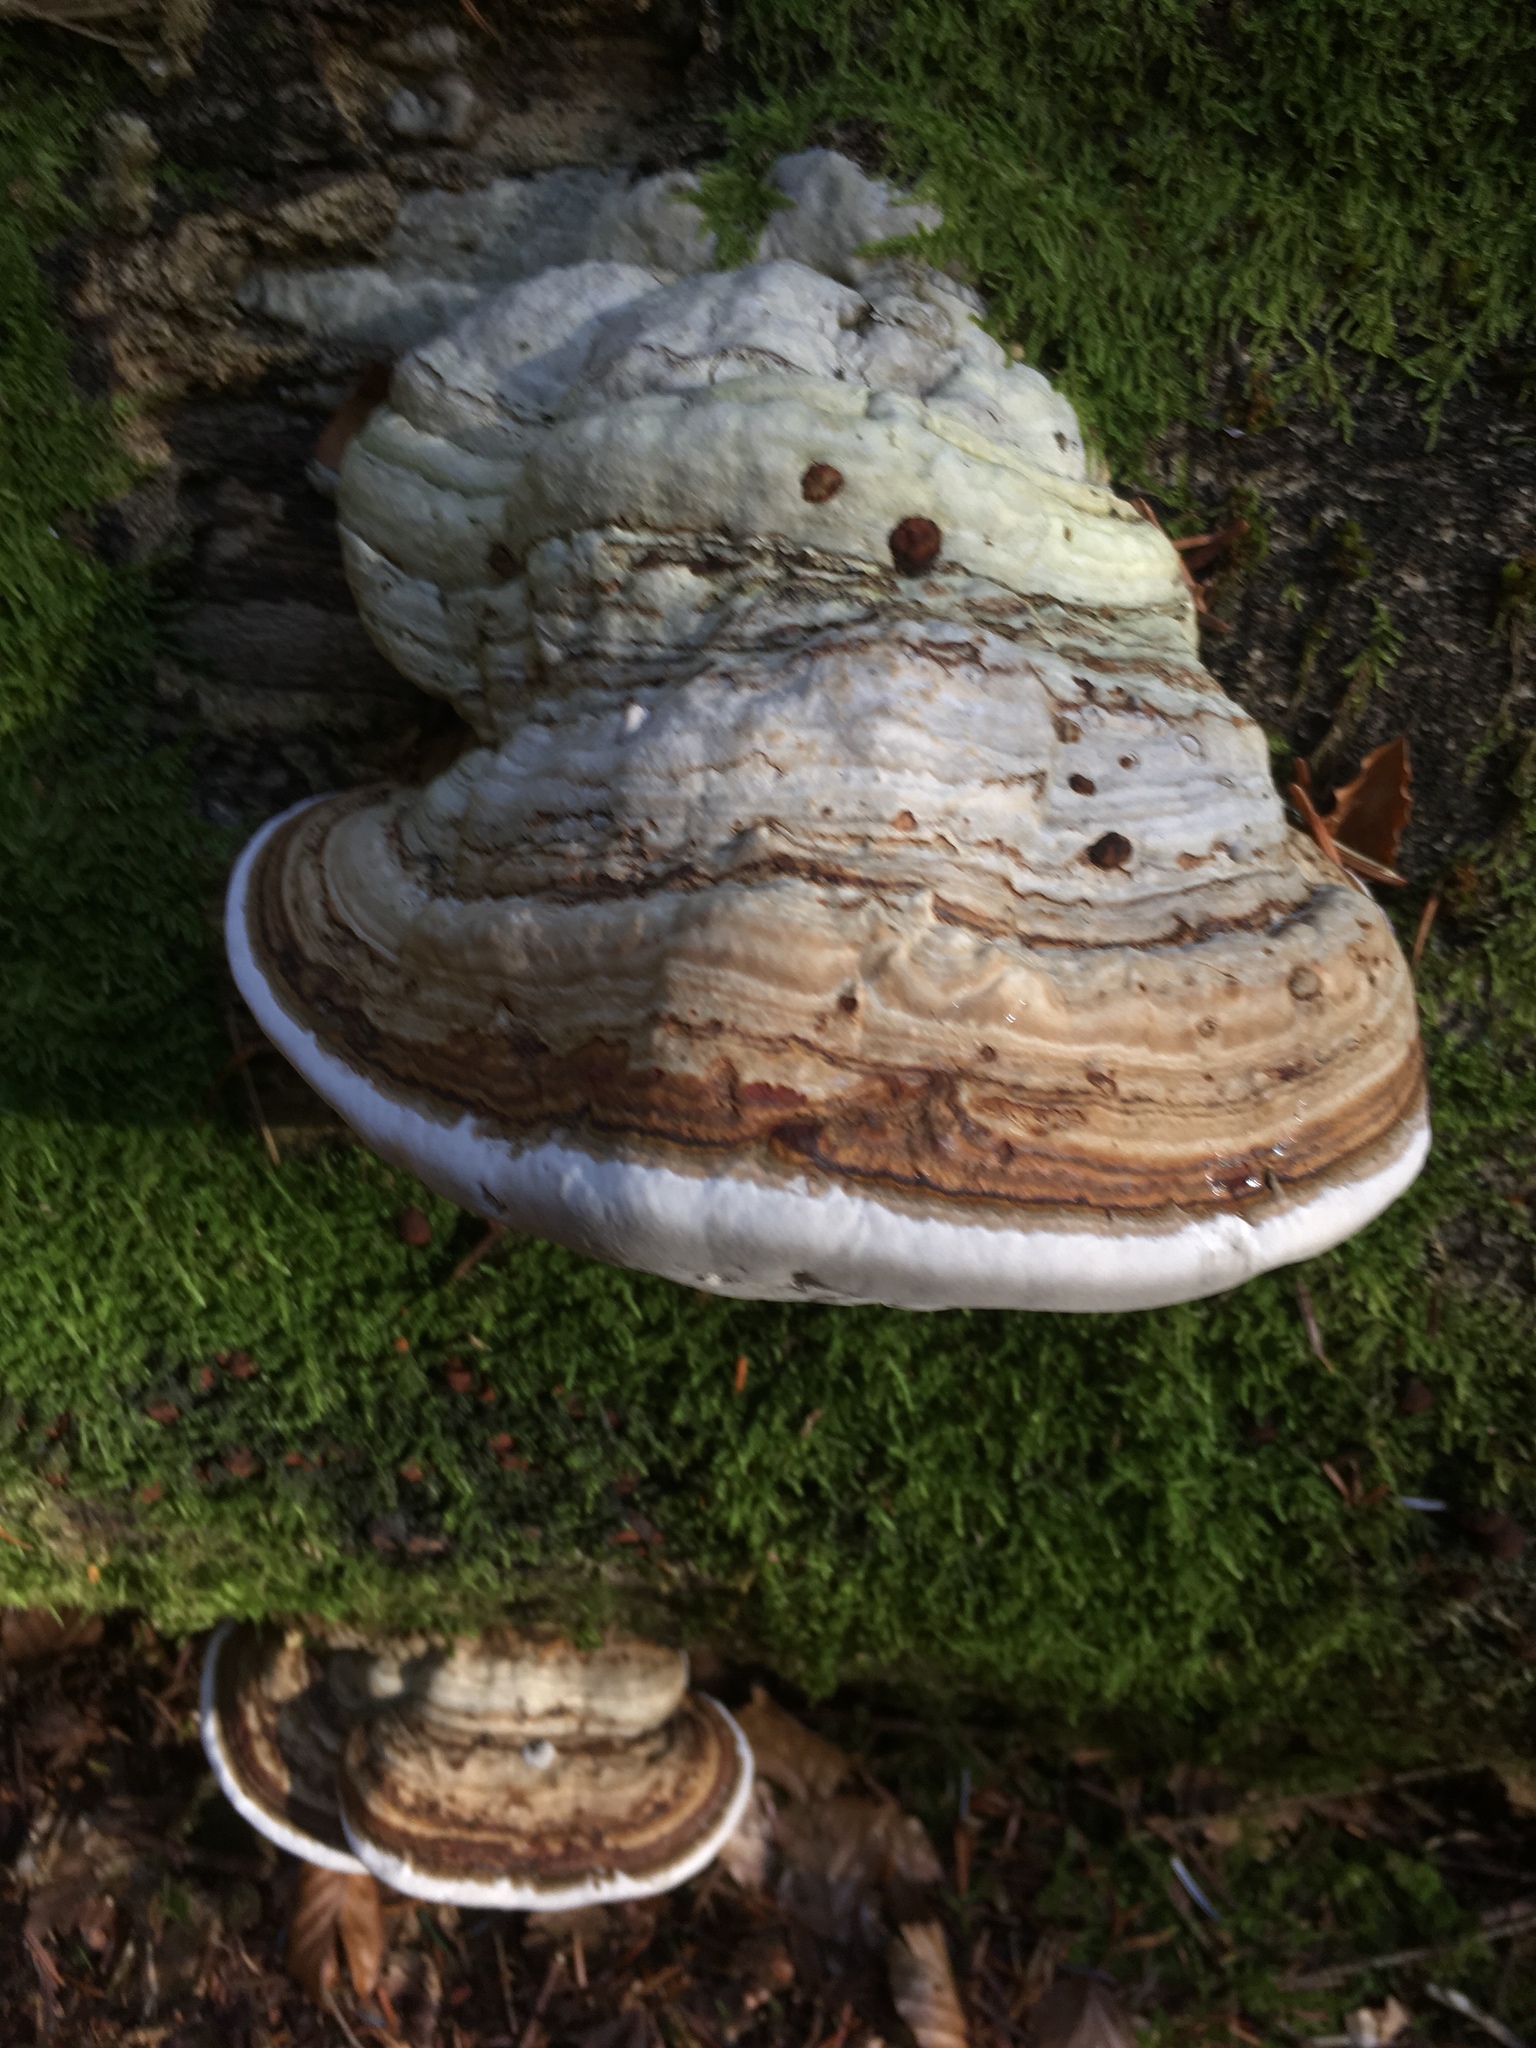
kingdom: Fungi
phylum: Basidiomycota
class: Agaricomycetes
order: Polyporales
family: Polyporaceae
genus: Fomes
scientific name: Fomes fomentarius
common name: Hoof fungus
